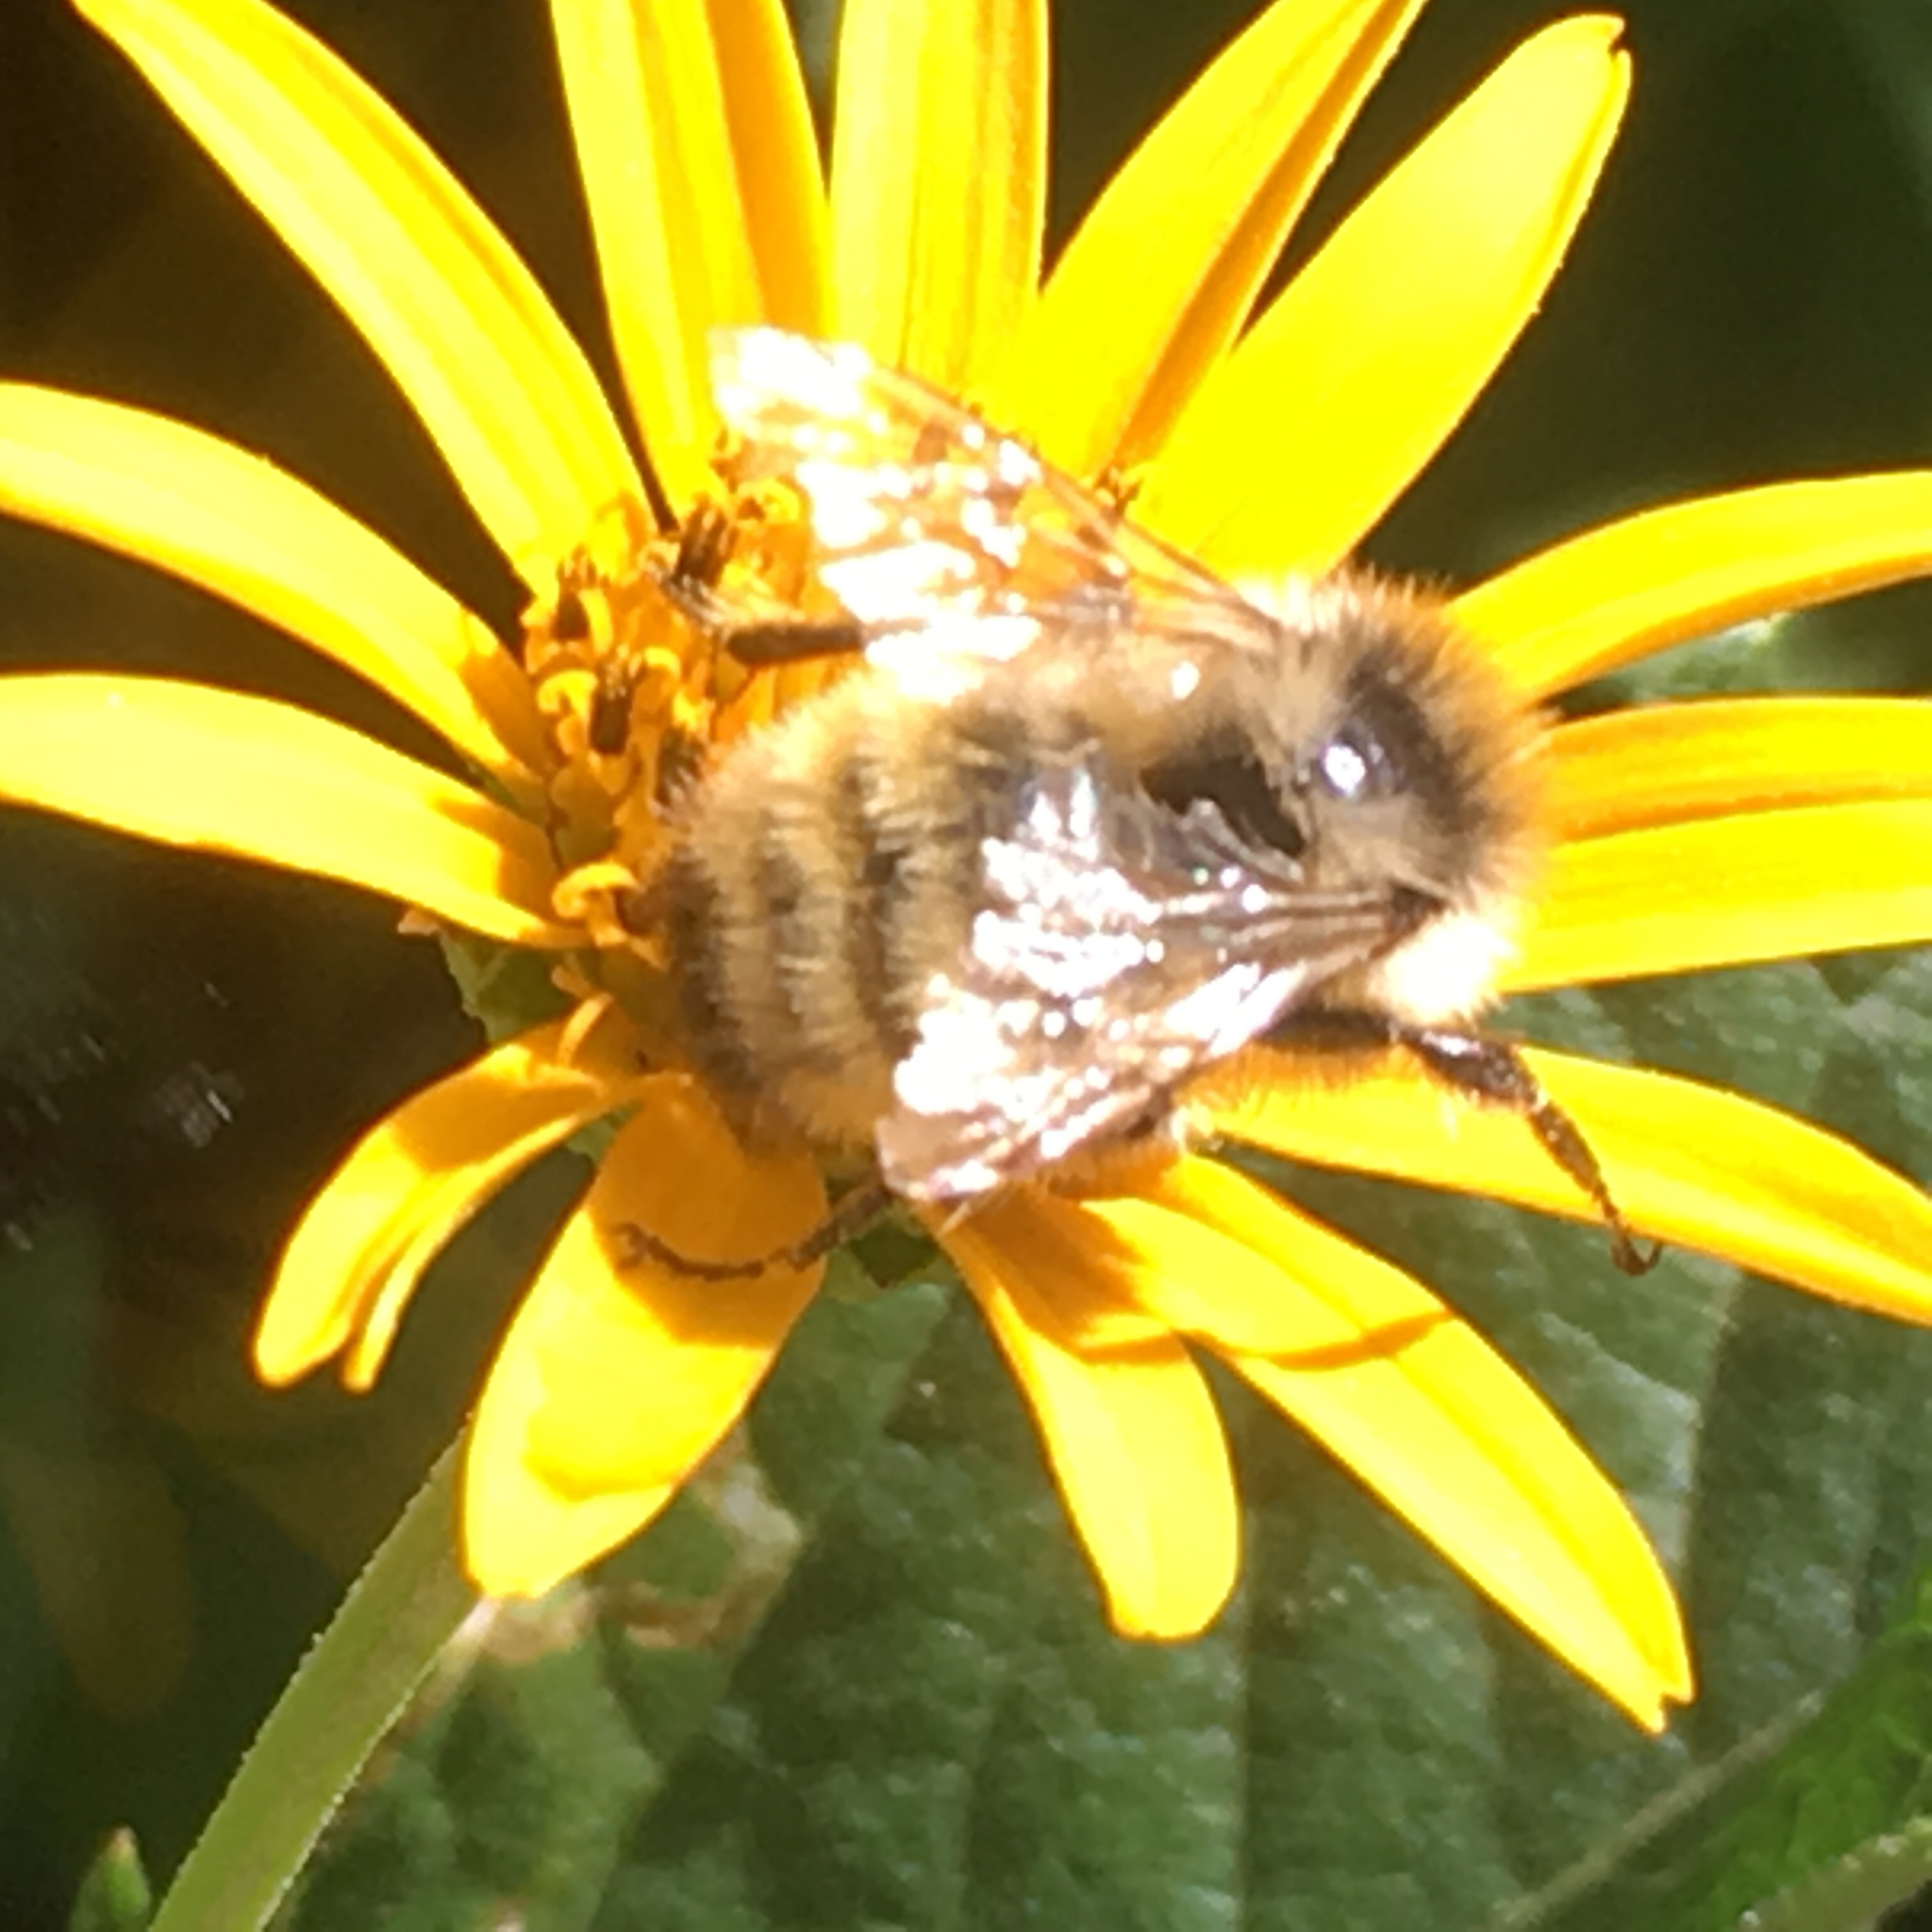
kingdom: Animalia
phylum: Arthropoda
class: Insecta
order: Hymenoptera
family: Apidae
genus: Pyrobombus
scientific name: Pyrobombus
